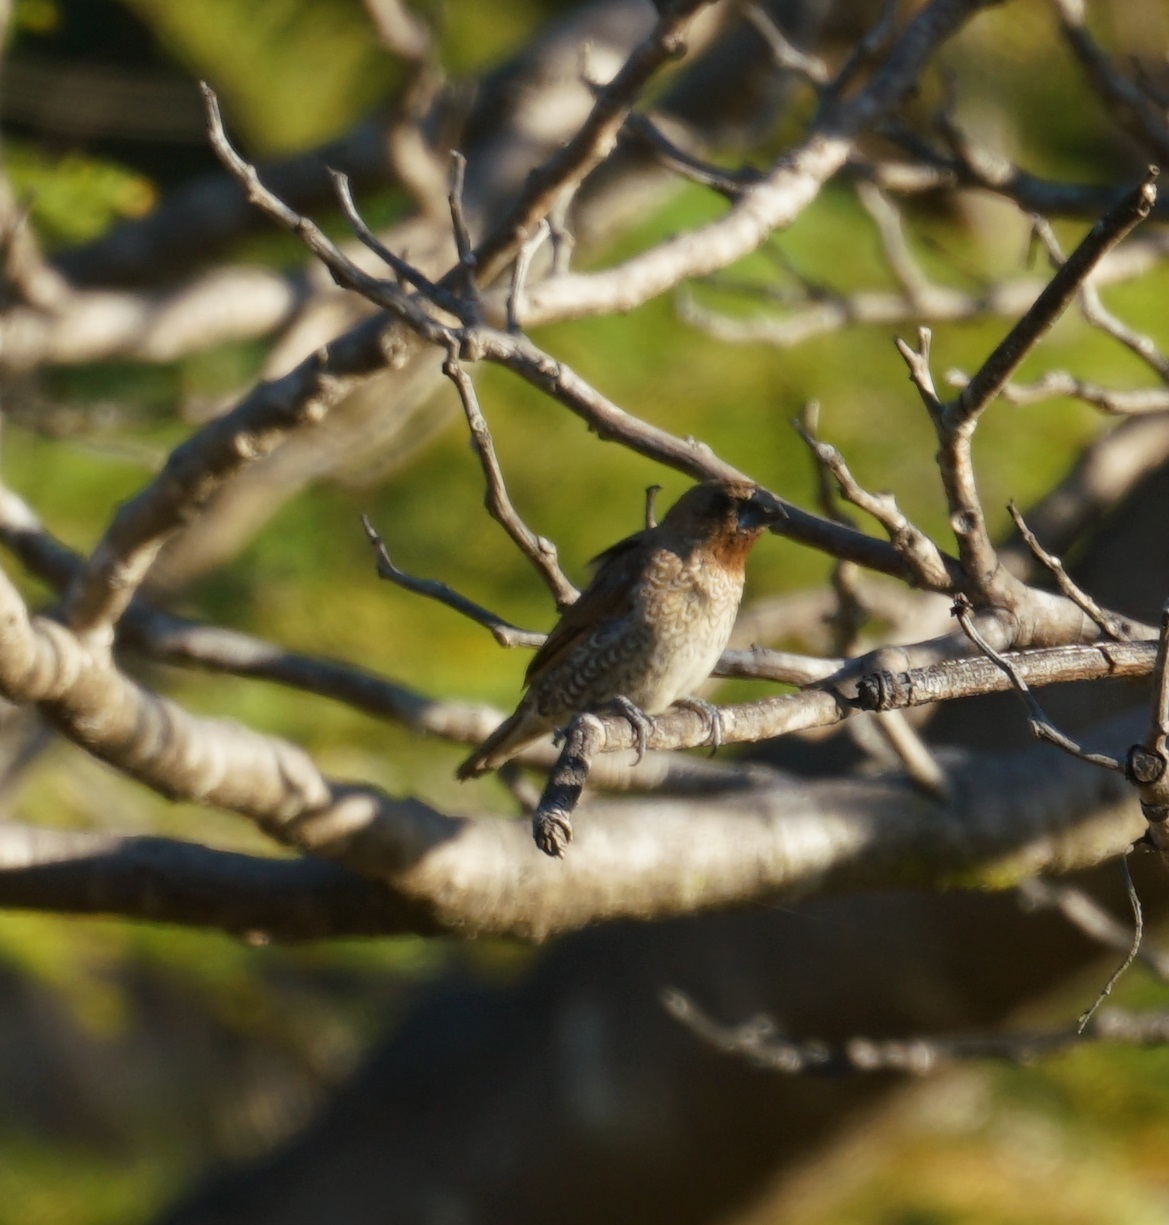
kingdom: Animalia
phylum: Chordata
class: Aves
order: Passeriformes
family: Estrildidae
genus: Lonchura
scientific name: Lonchura punctulata
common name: Scaly-breasted munia
